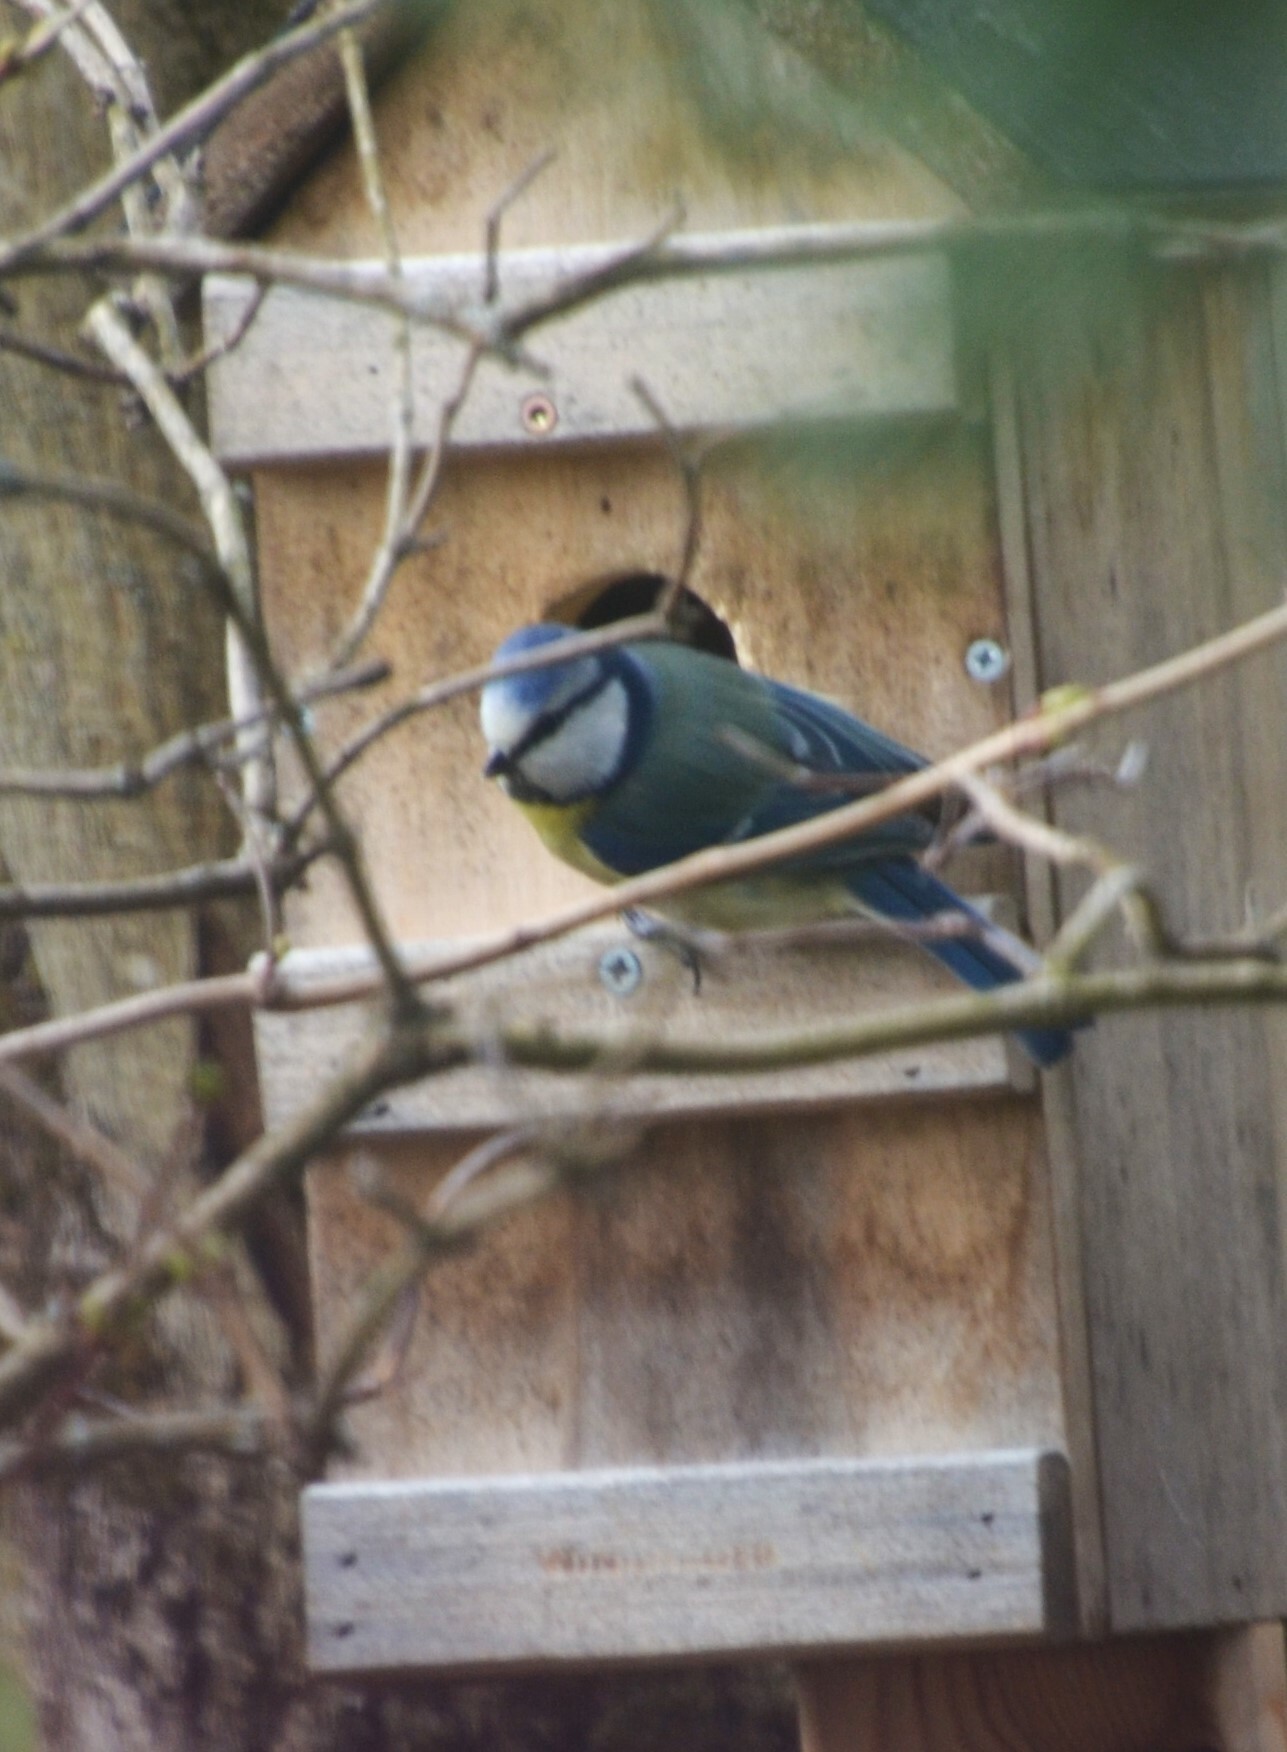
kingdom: Animalia
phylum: Chordata
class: Aves
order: Passeriformes
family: Paridae
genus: Cyanistes
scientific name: Cyanistes caeruleus
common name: Eurasian blue tit
